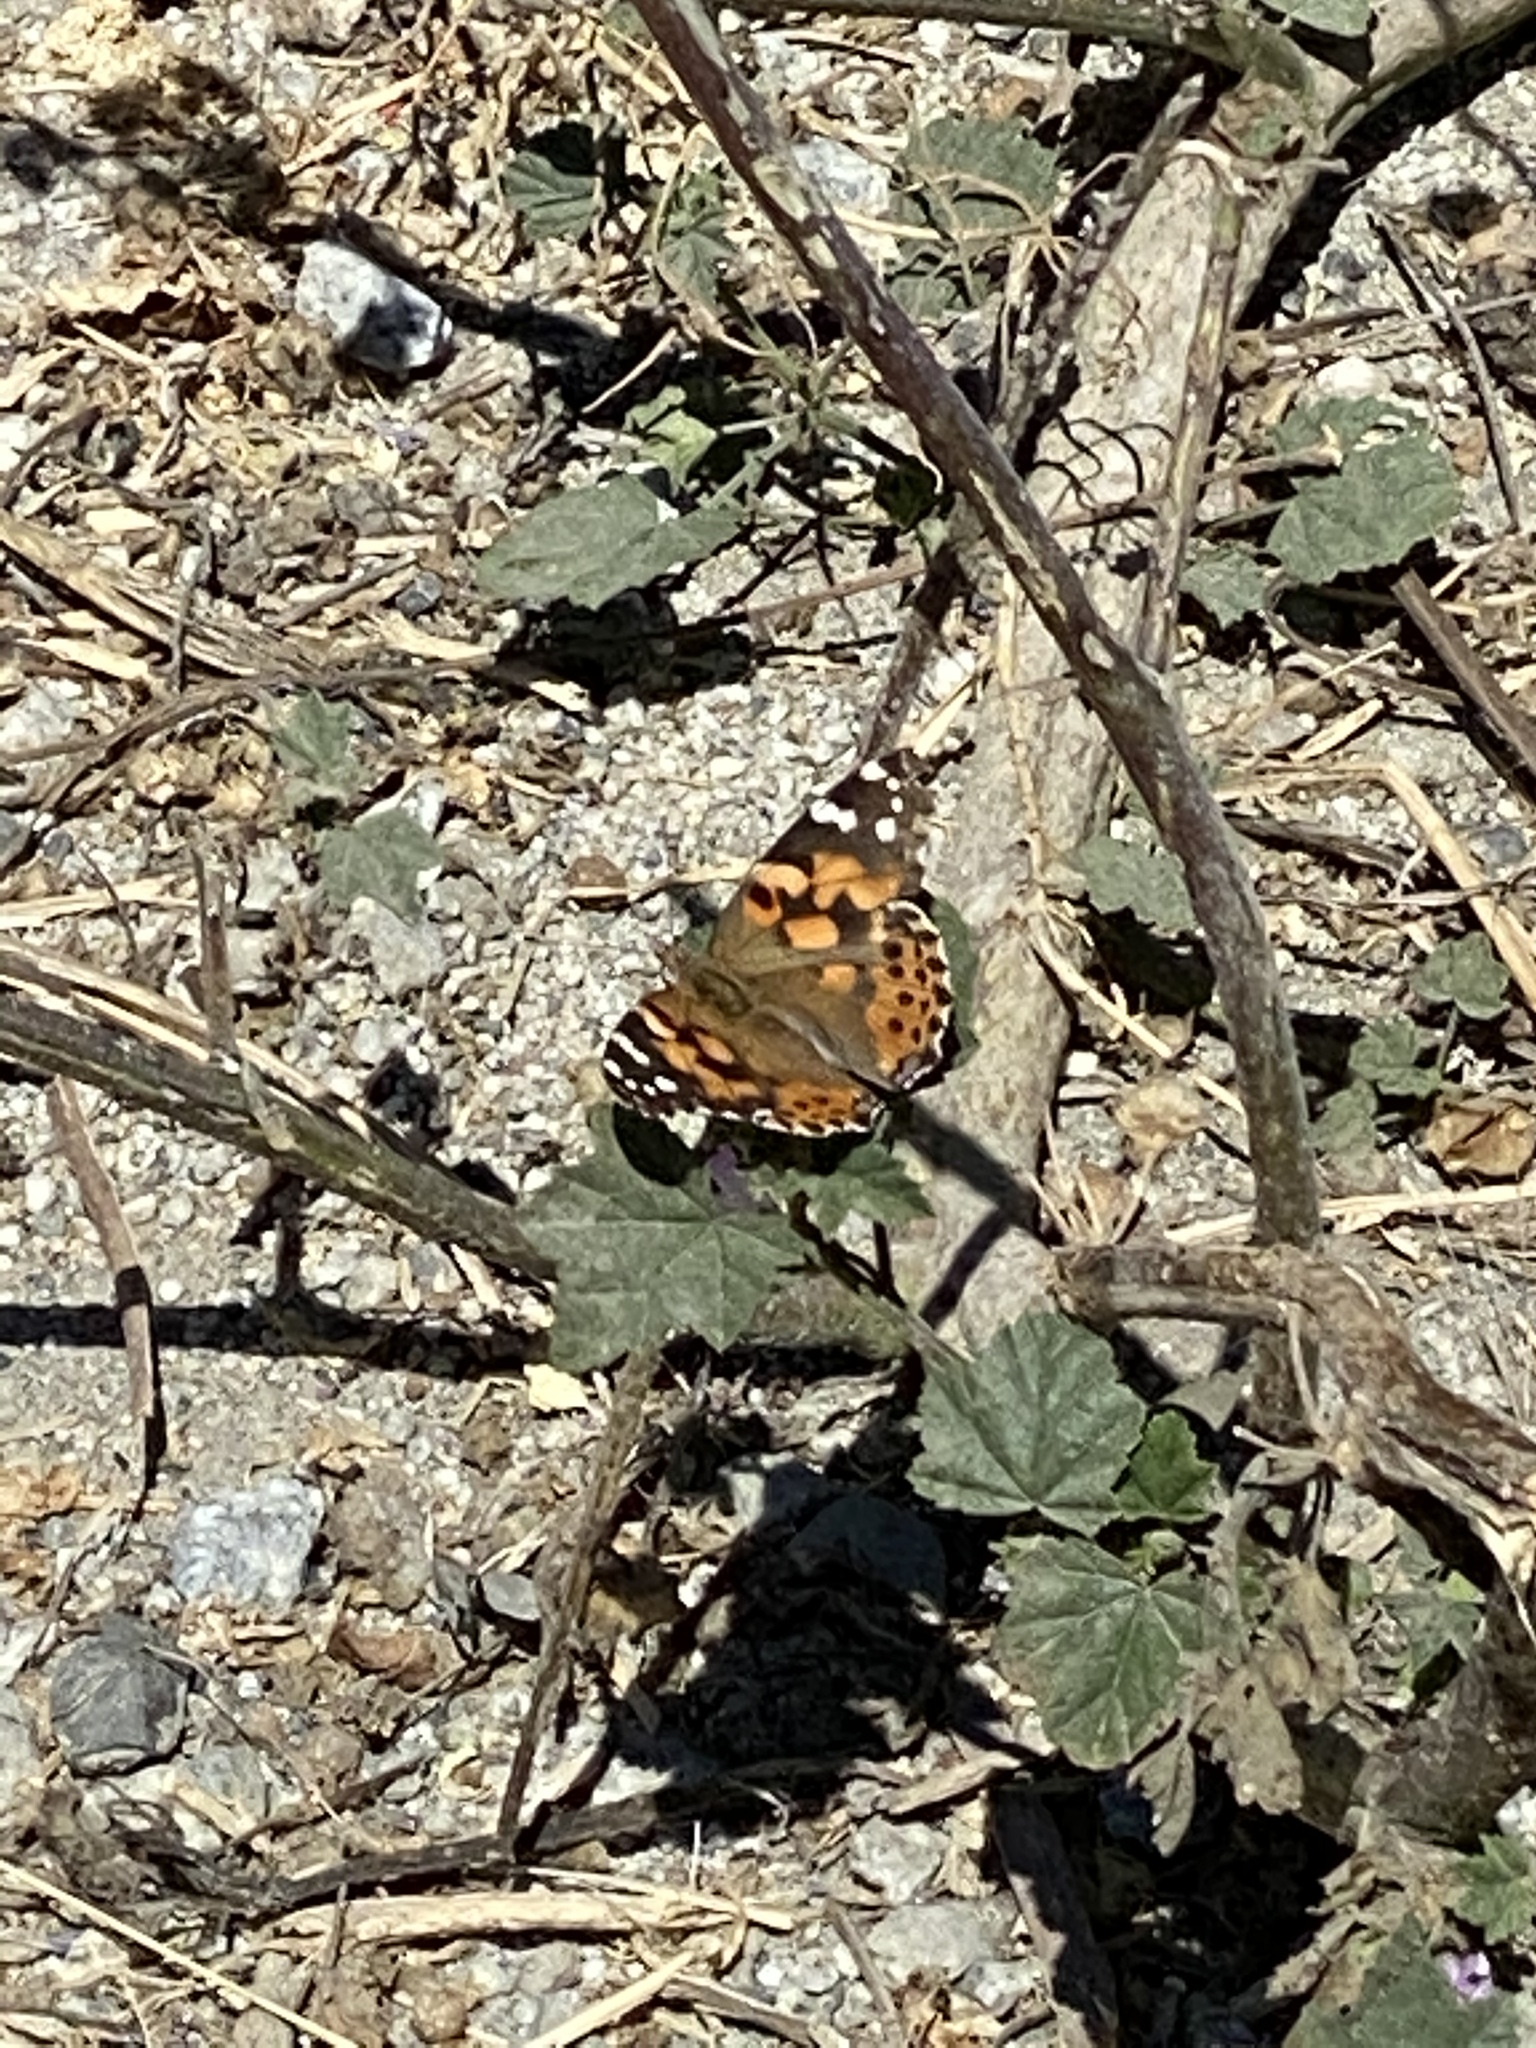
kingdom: Animalia
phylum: Arthropoda
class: Insecta
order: Lepidoptera
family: Nymphalidae
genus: Vanessa
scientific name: Vanessa cardui
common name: Painted lady
